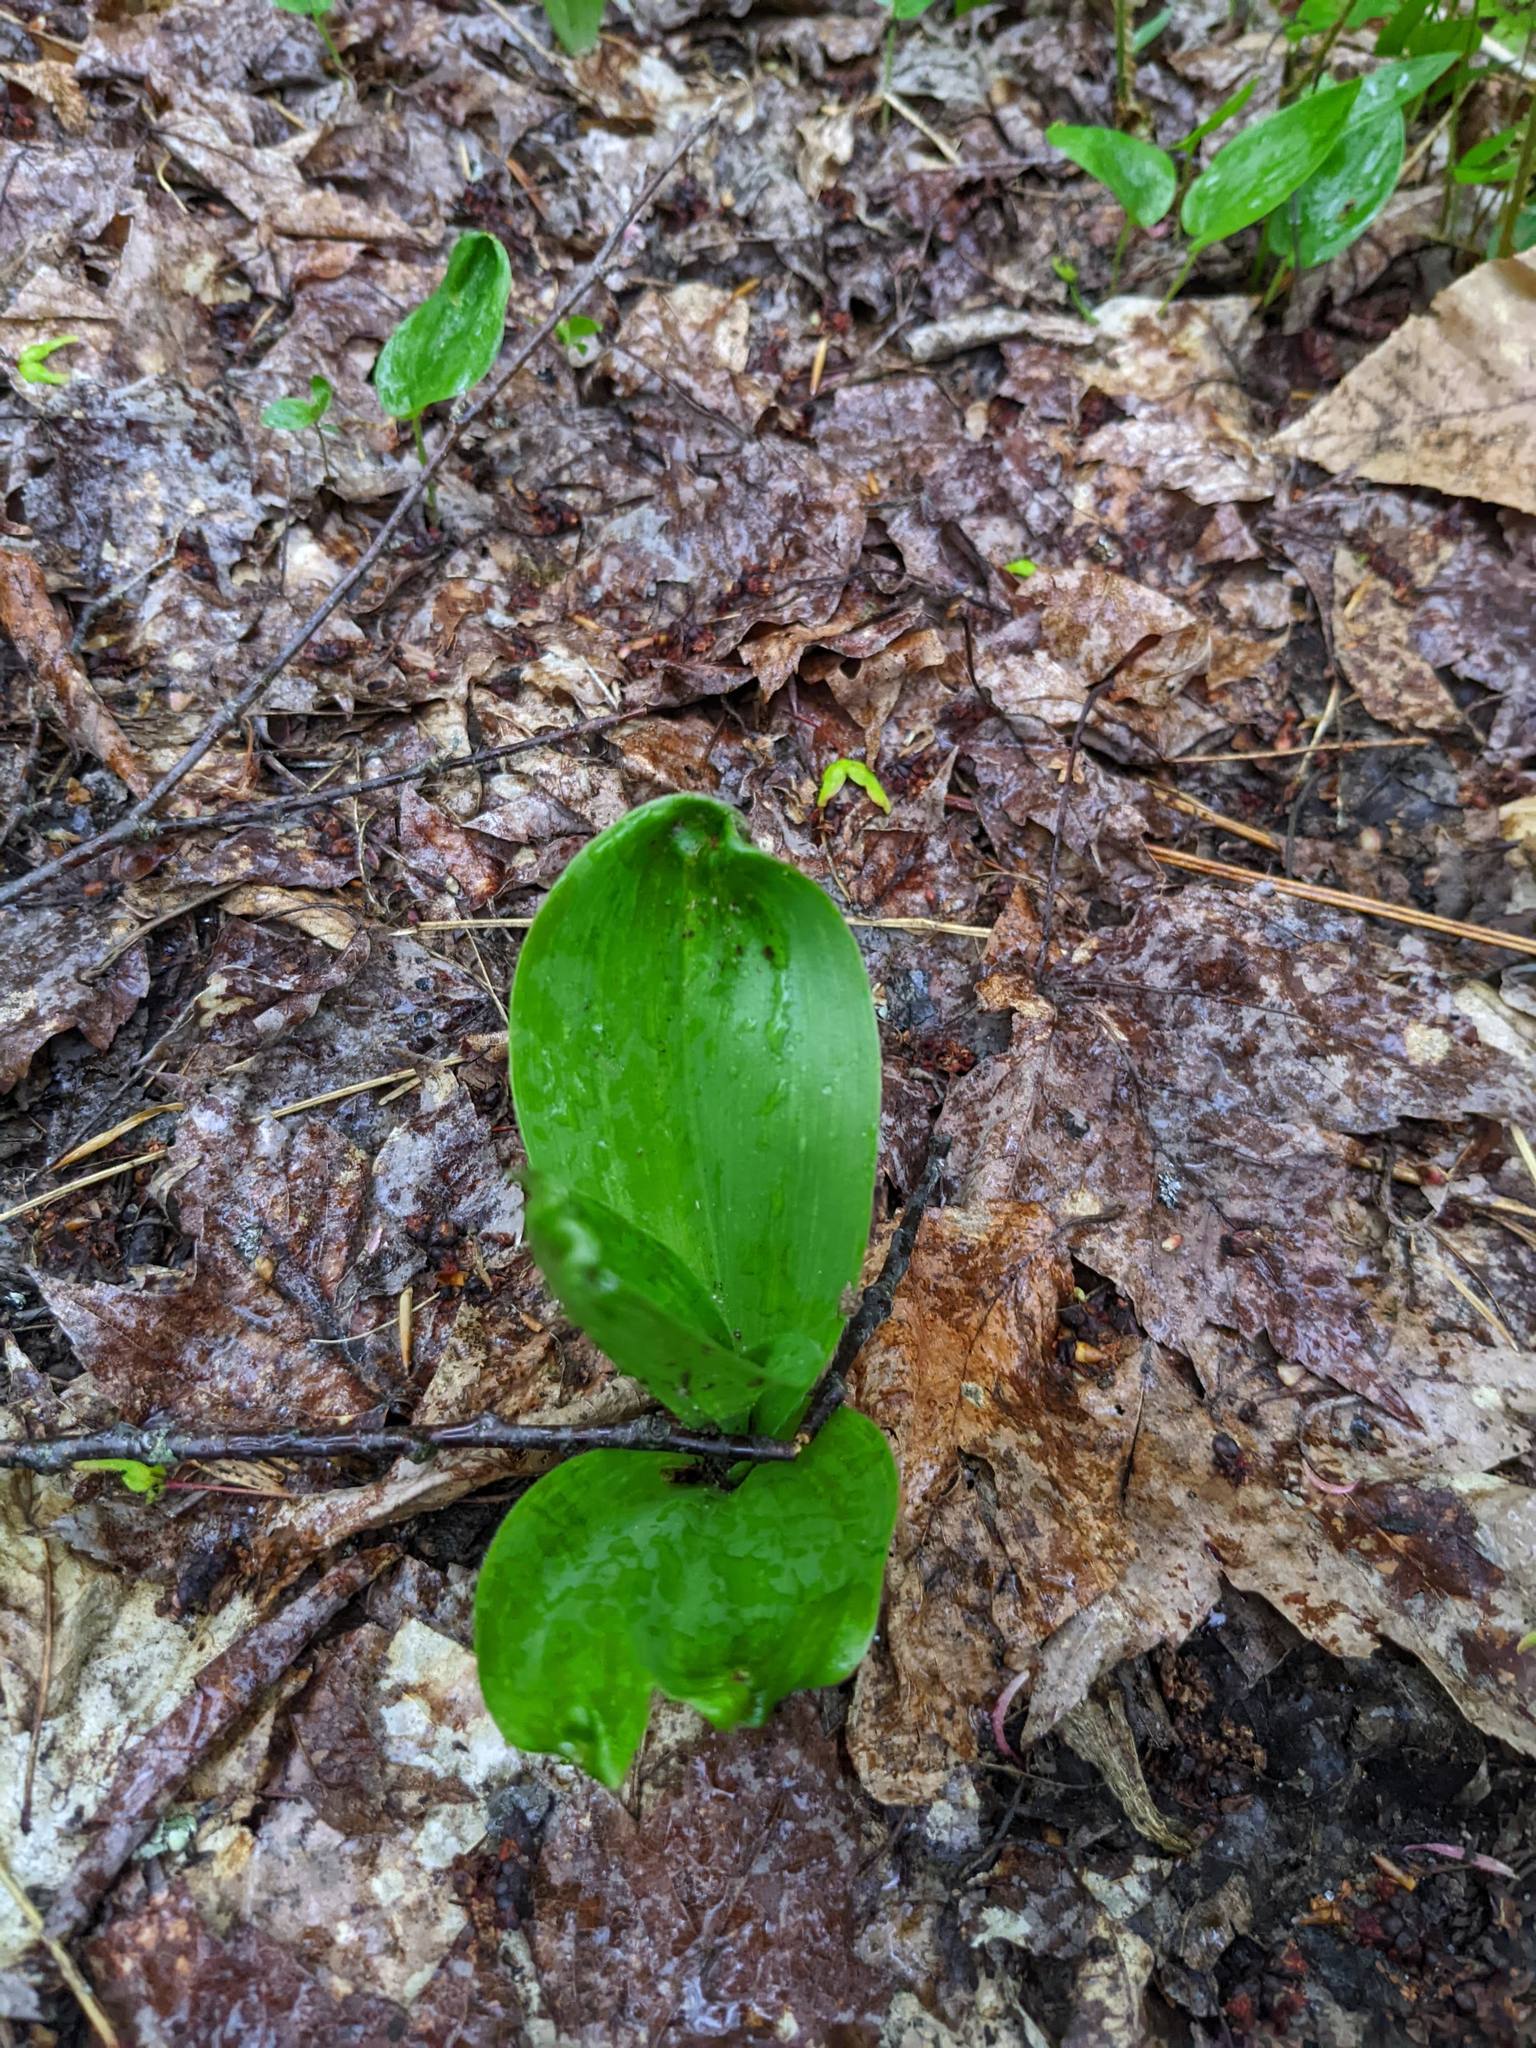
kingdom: Plantae
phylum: Tracheophyta
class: Liliopsida
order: Asparagales
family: Asparagaceae
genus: Maianthemum
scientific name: Maianthemum canadense
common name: False lily-of-the-valley
